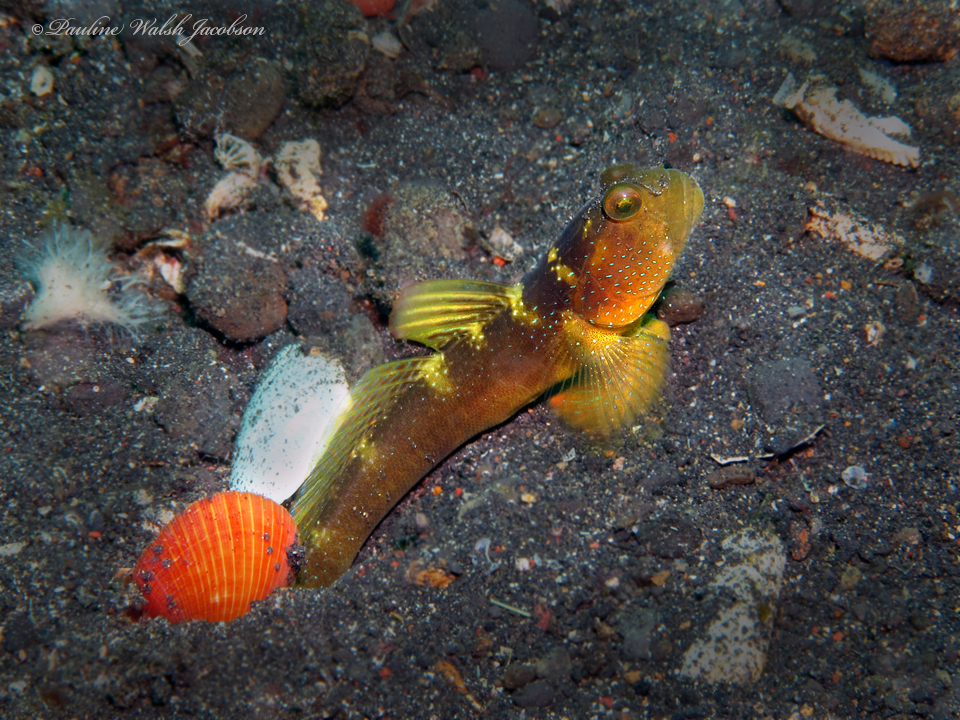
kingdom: Animalia
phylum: Chordata
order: Perciformes
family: Gobiidae
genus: Cryptocentrus
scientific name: Cryptocentrus fasciatus
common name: Barred prawn-goby
